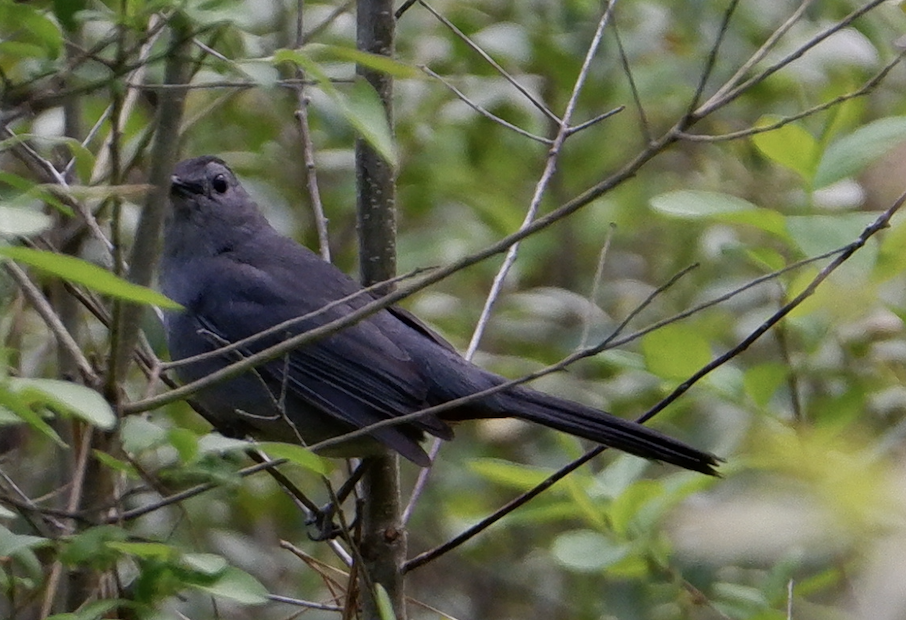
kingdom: Animalia
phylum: Chordata
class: Aves
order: Passeriformes
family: Mimidae
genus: Dumetella
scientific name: Dumetella carolinensis
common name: Gray catbird
